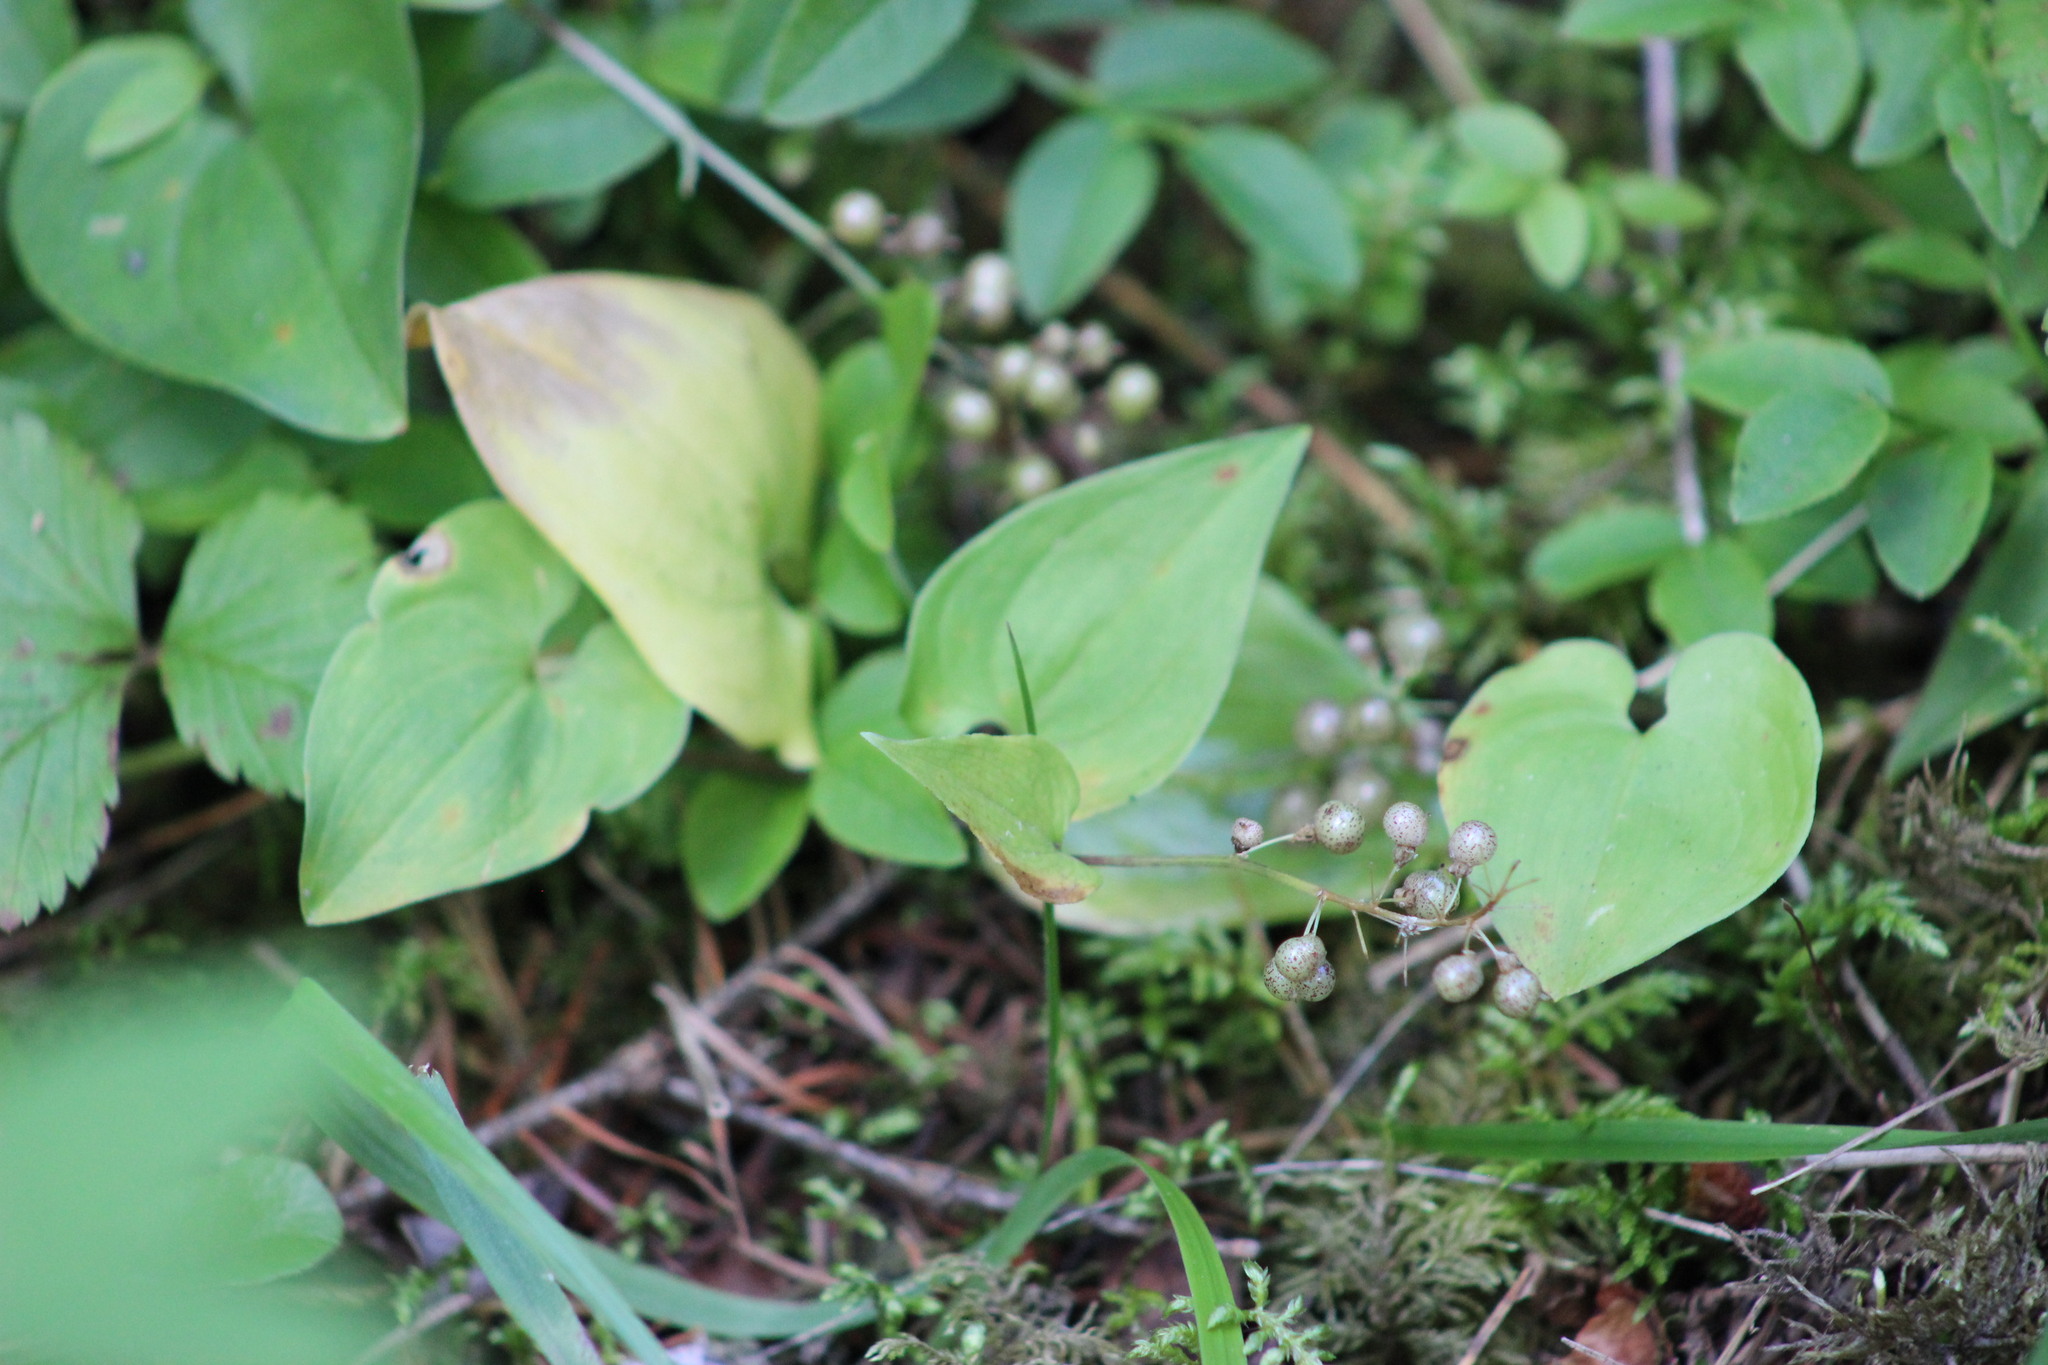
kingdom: Plantae
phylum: Tracheophyta
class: Liliopsida
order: Asparagales
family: Asparagaceae
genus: Maianthemum
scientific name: Maianthemum bifolium
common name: May lily
